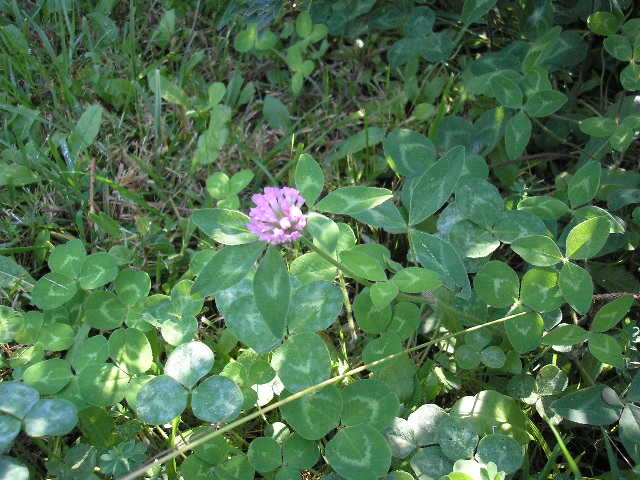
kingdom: Plantae
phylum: Tracheophyta
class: Magnoliopsida
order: Fabales
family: Fabaceae
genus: Trifolium
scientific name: Trifolium pratense
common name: Red clover
